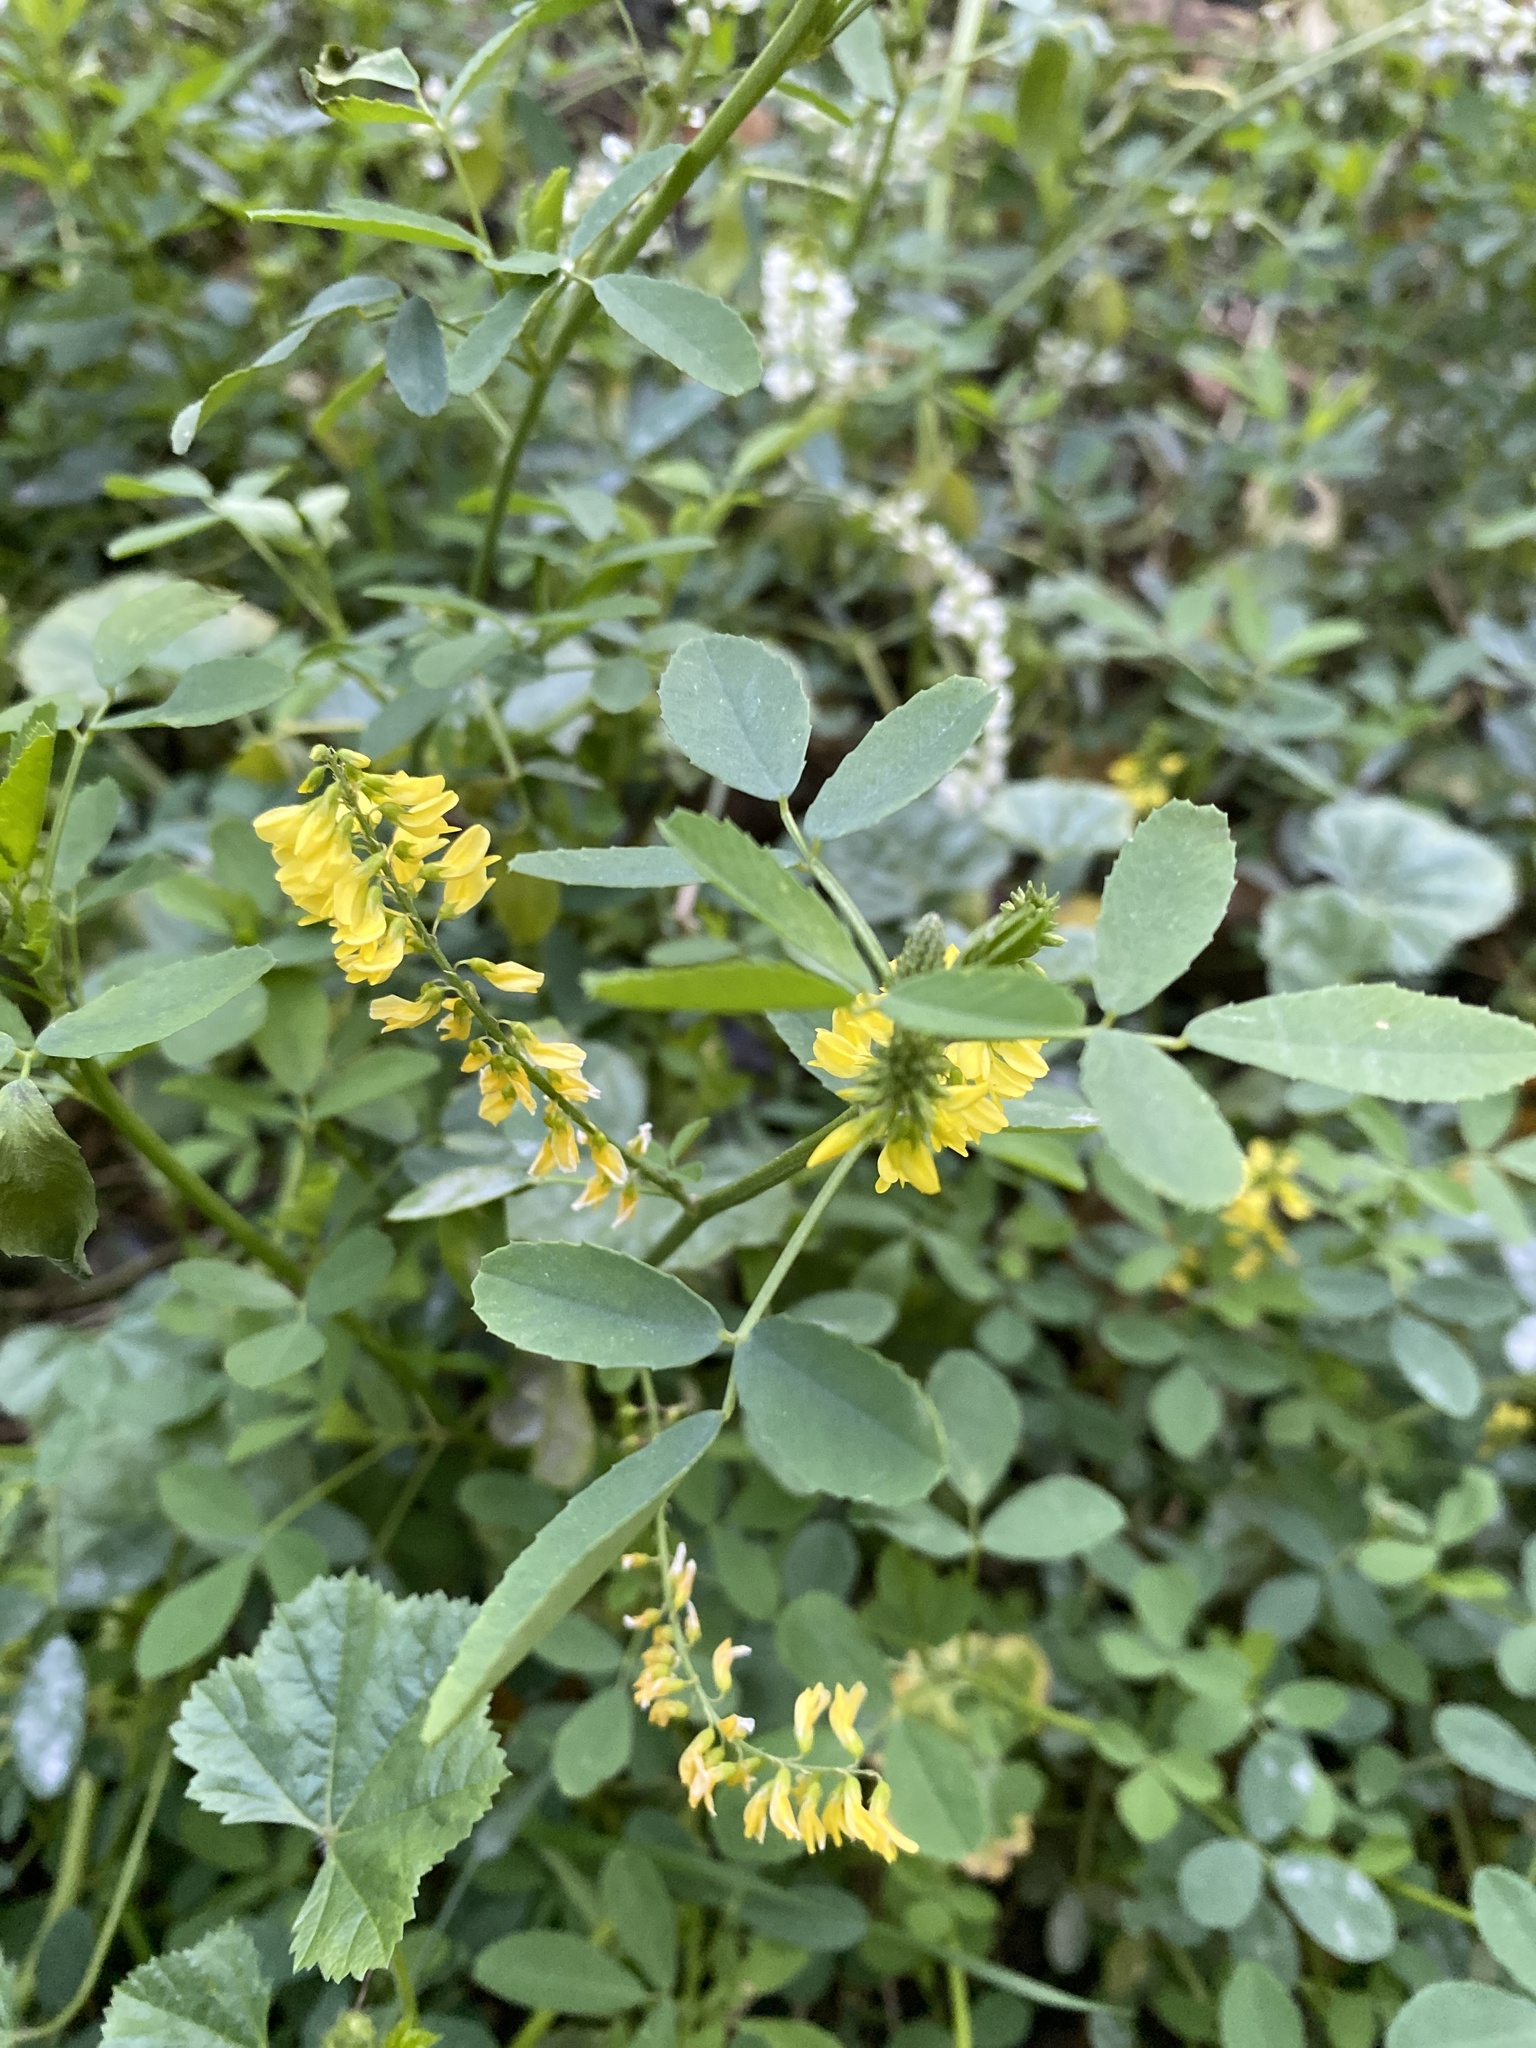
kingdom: Plantae
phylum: Tracheophyta
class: Magnoliopsida
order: Fabales
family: Fabaceae
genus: Melilotus
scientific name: Melilotus officinalis
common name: Sweetclover
